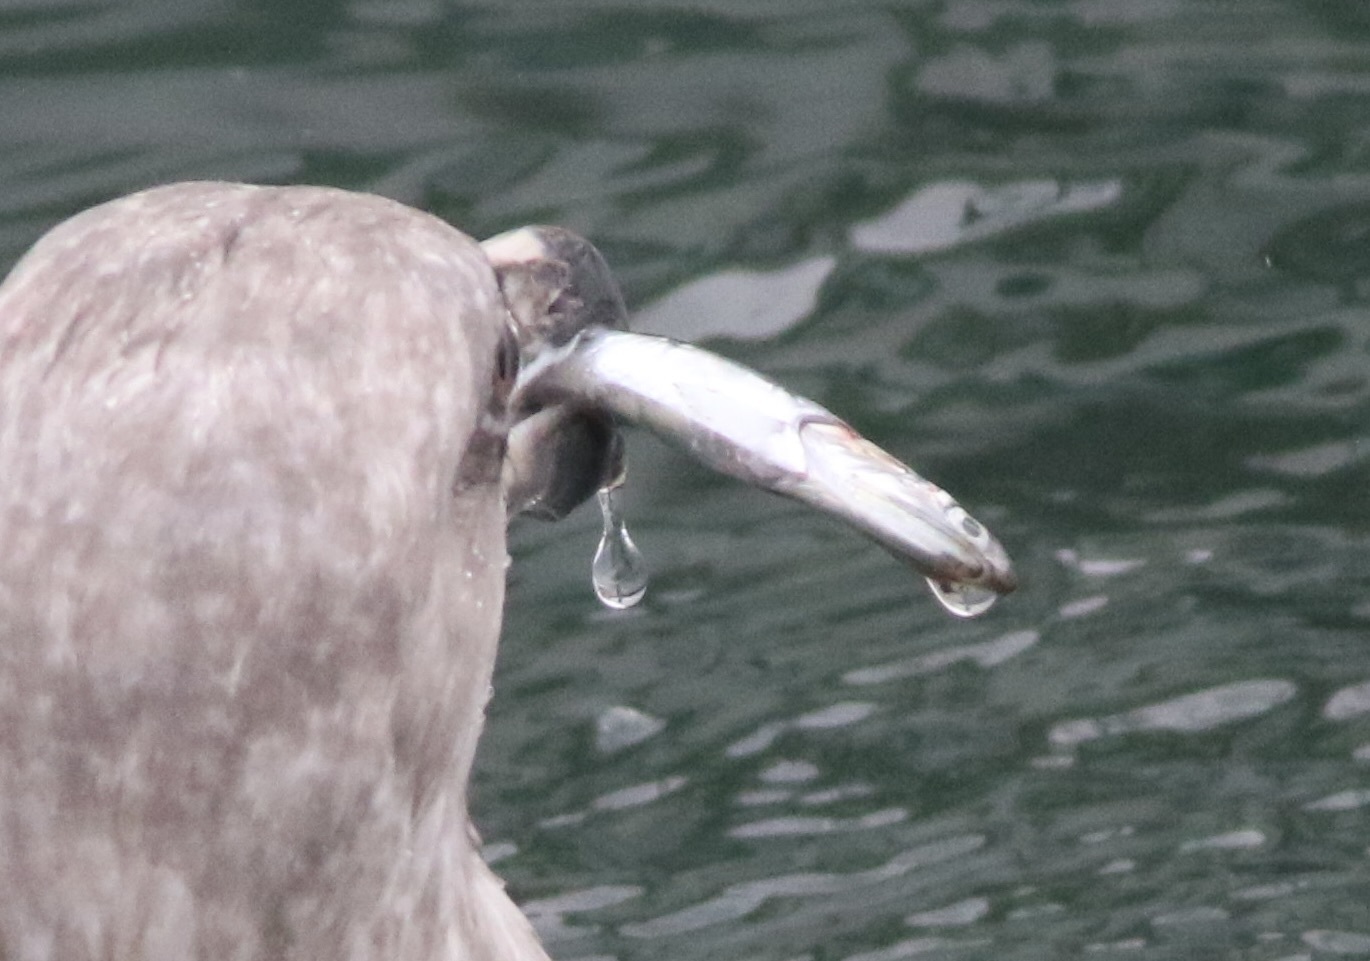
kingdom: Animalia
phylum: Chordata
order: Clupeiformes
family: Engraulidae
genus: Engraulis
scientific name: Engraulis mordax
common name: Northern anchovy
